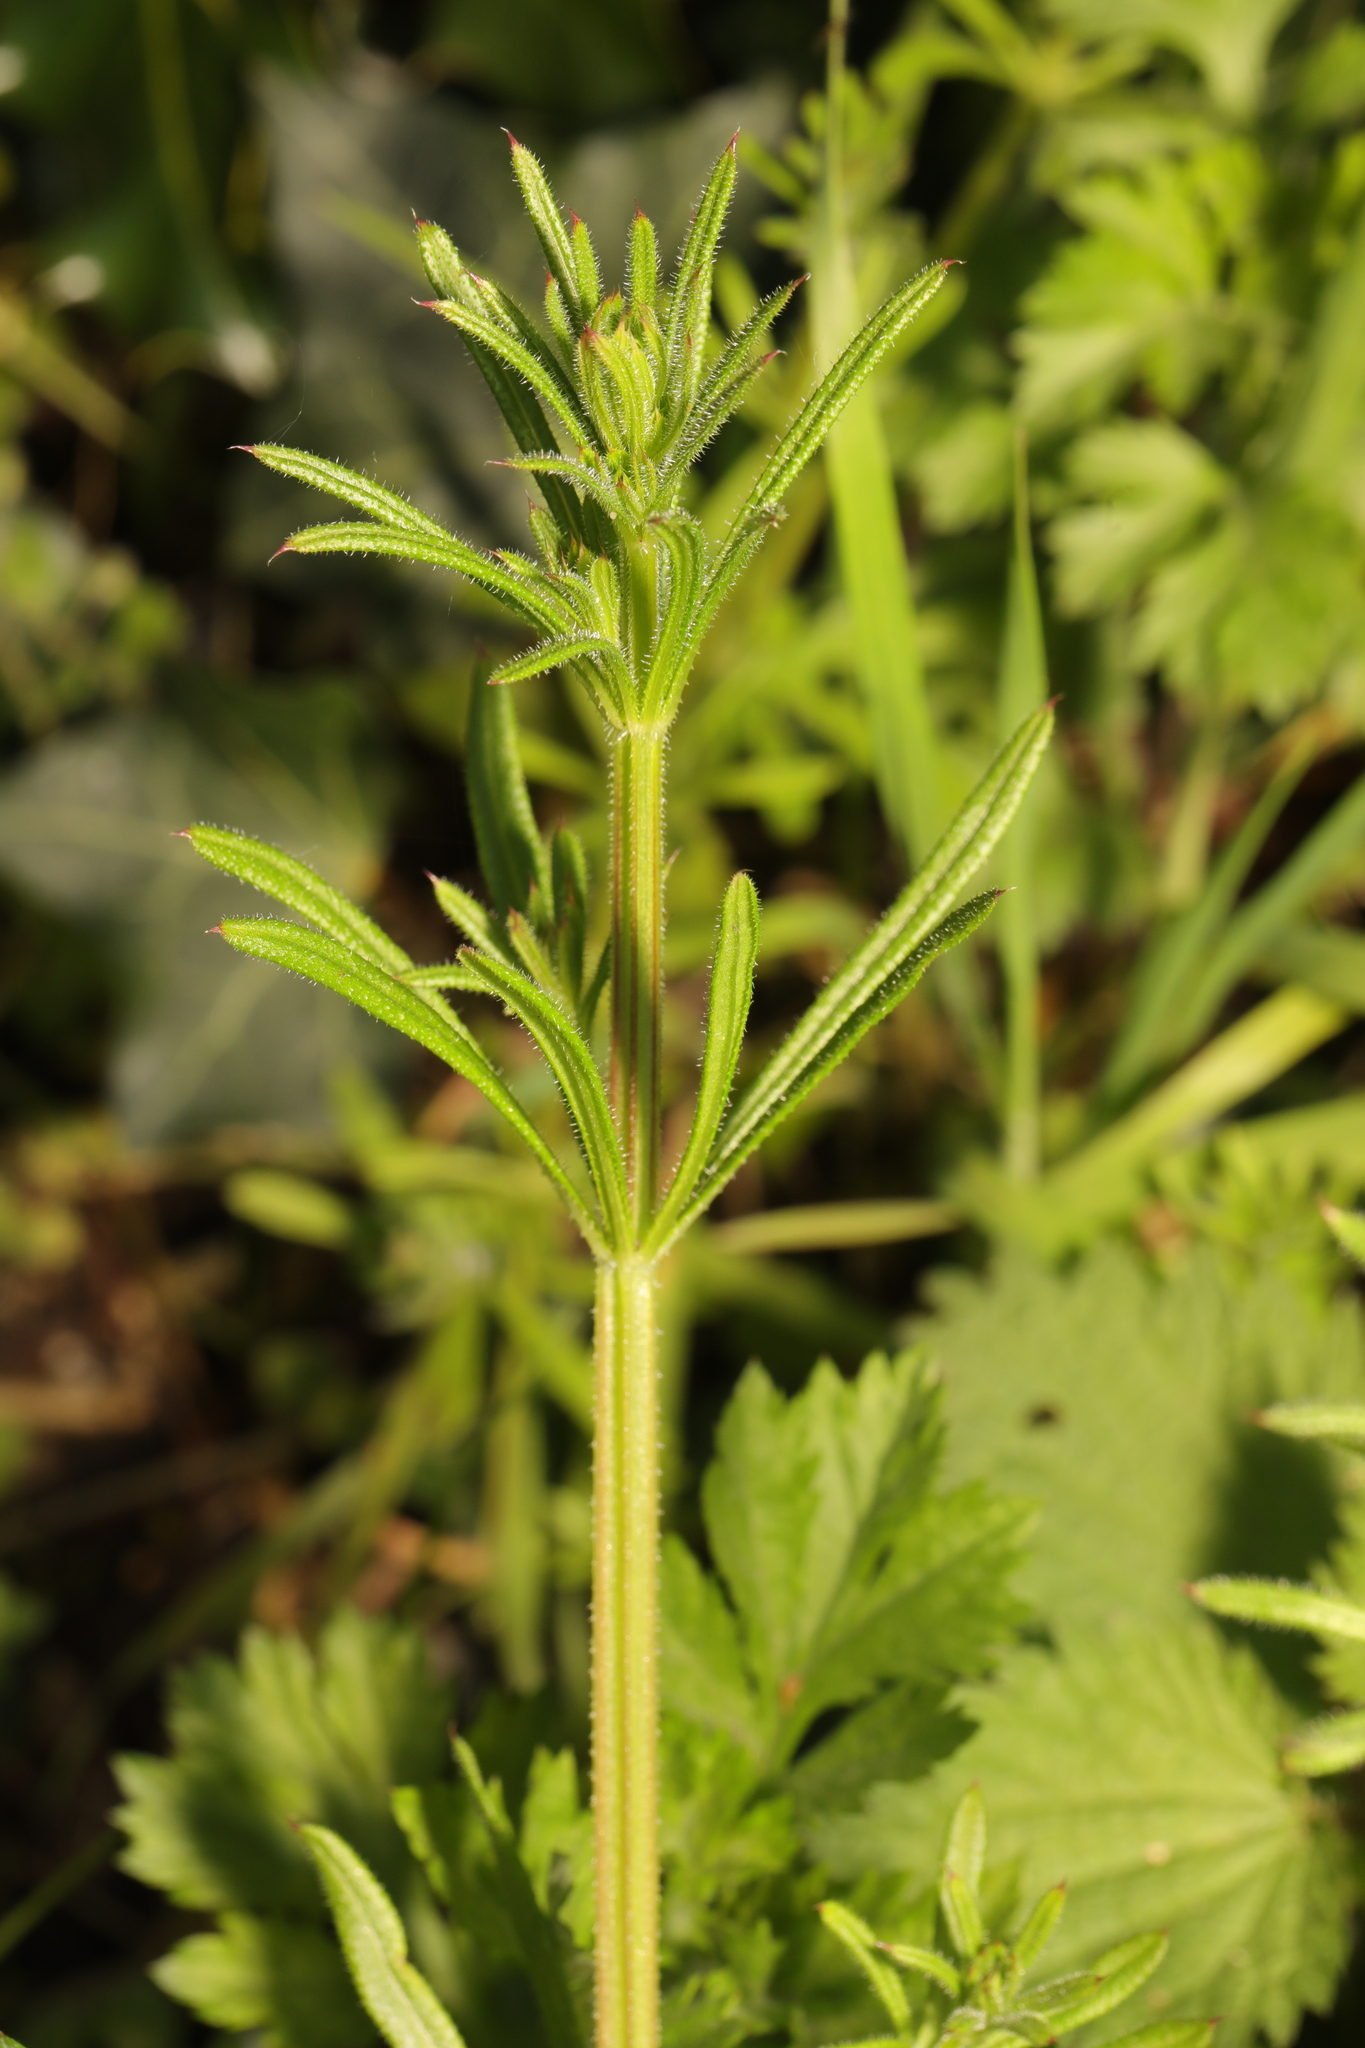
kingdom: Plantae
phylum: Tracheophyta
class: Magnoliopsida
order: Gentianales
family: Rubiaceae
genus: Galium
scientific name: Galium aparine
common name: Cleavers
